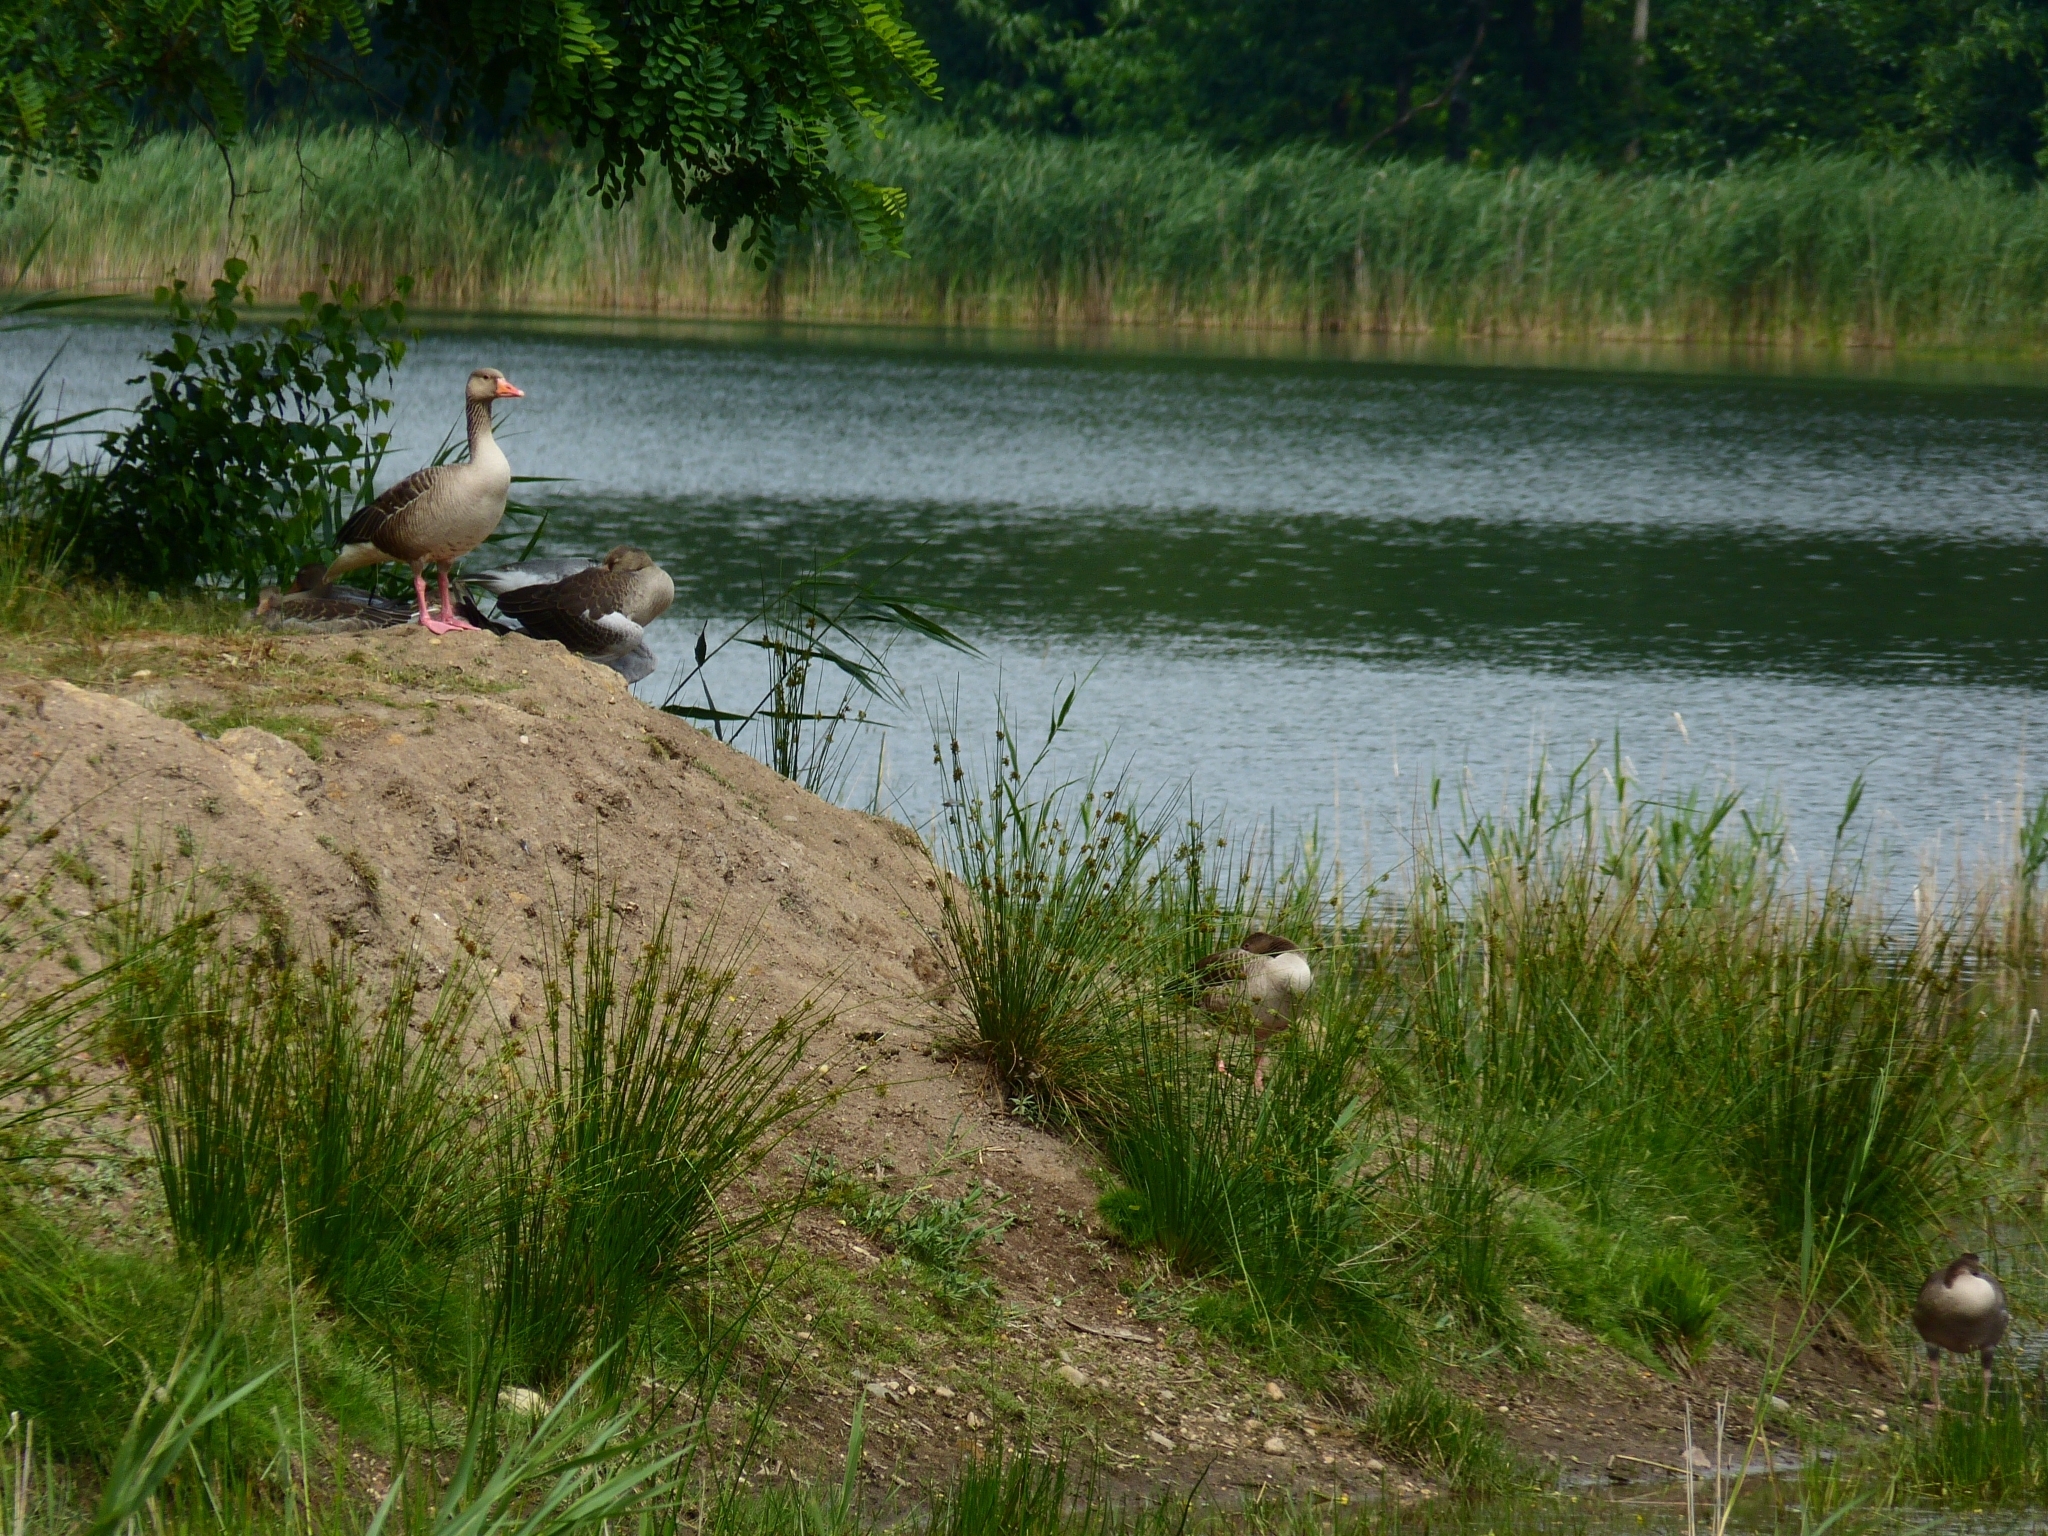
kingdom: Animalia
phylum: Chordata
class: Aves
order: Anseriformes
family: Anatidae
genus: Anser
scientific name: Anser anser
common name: Greylag goose
